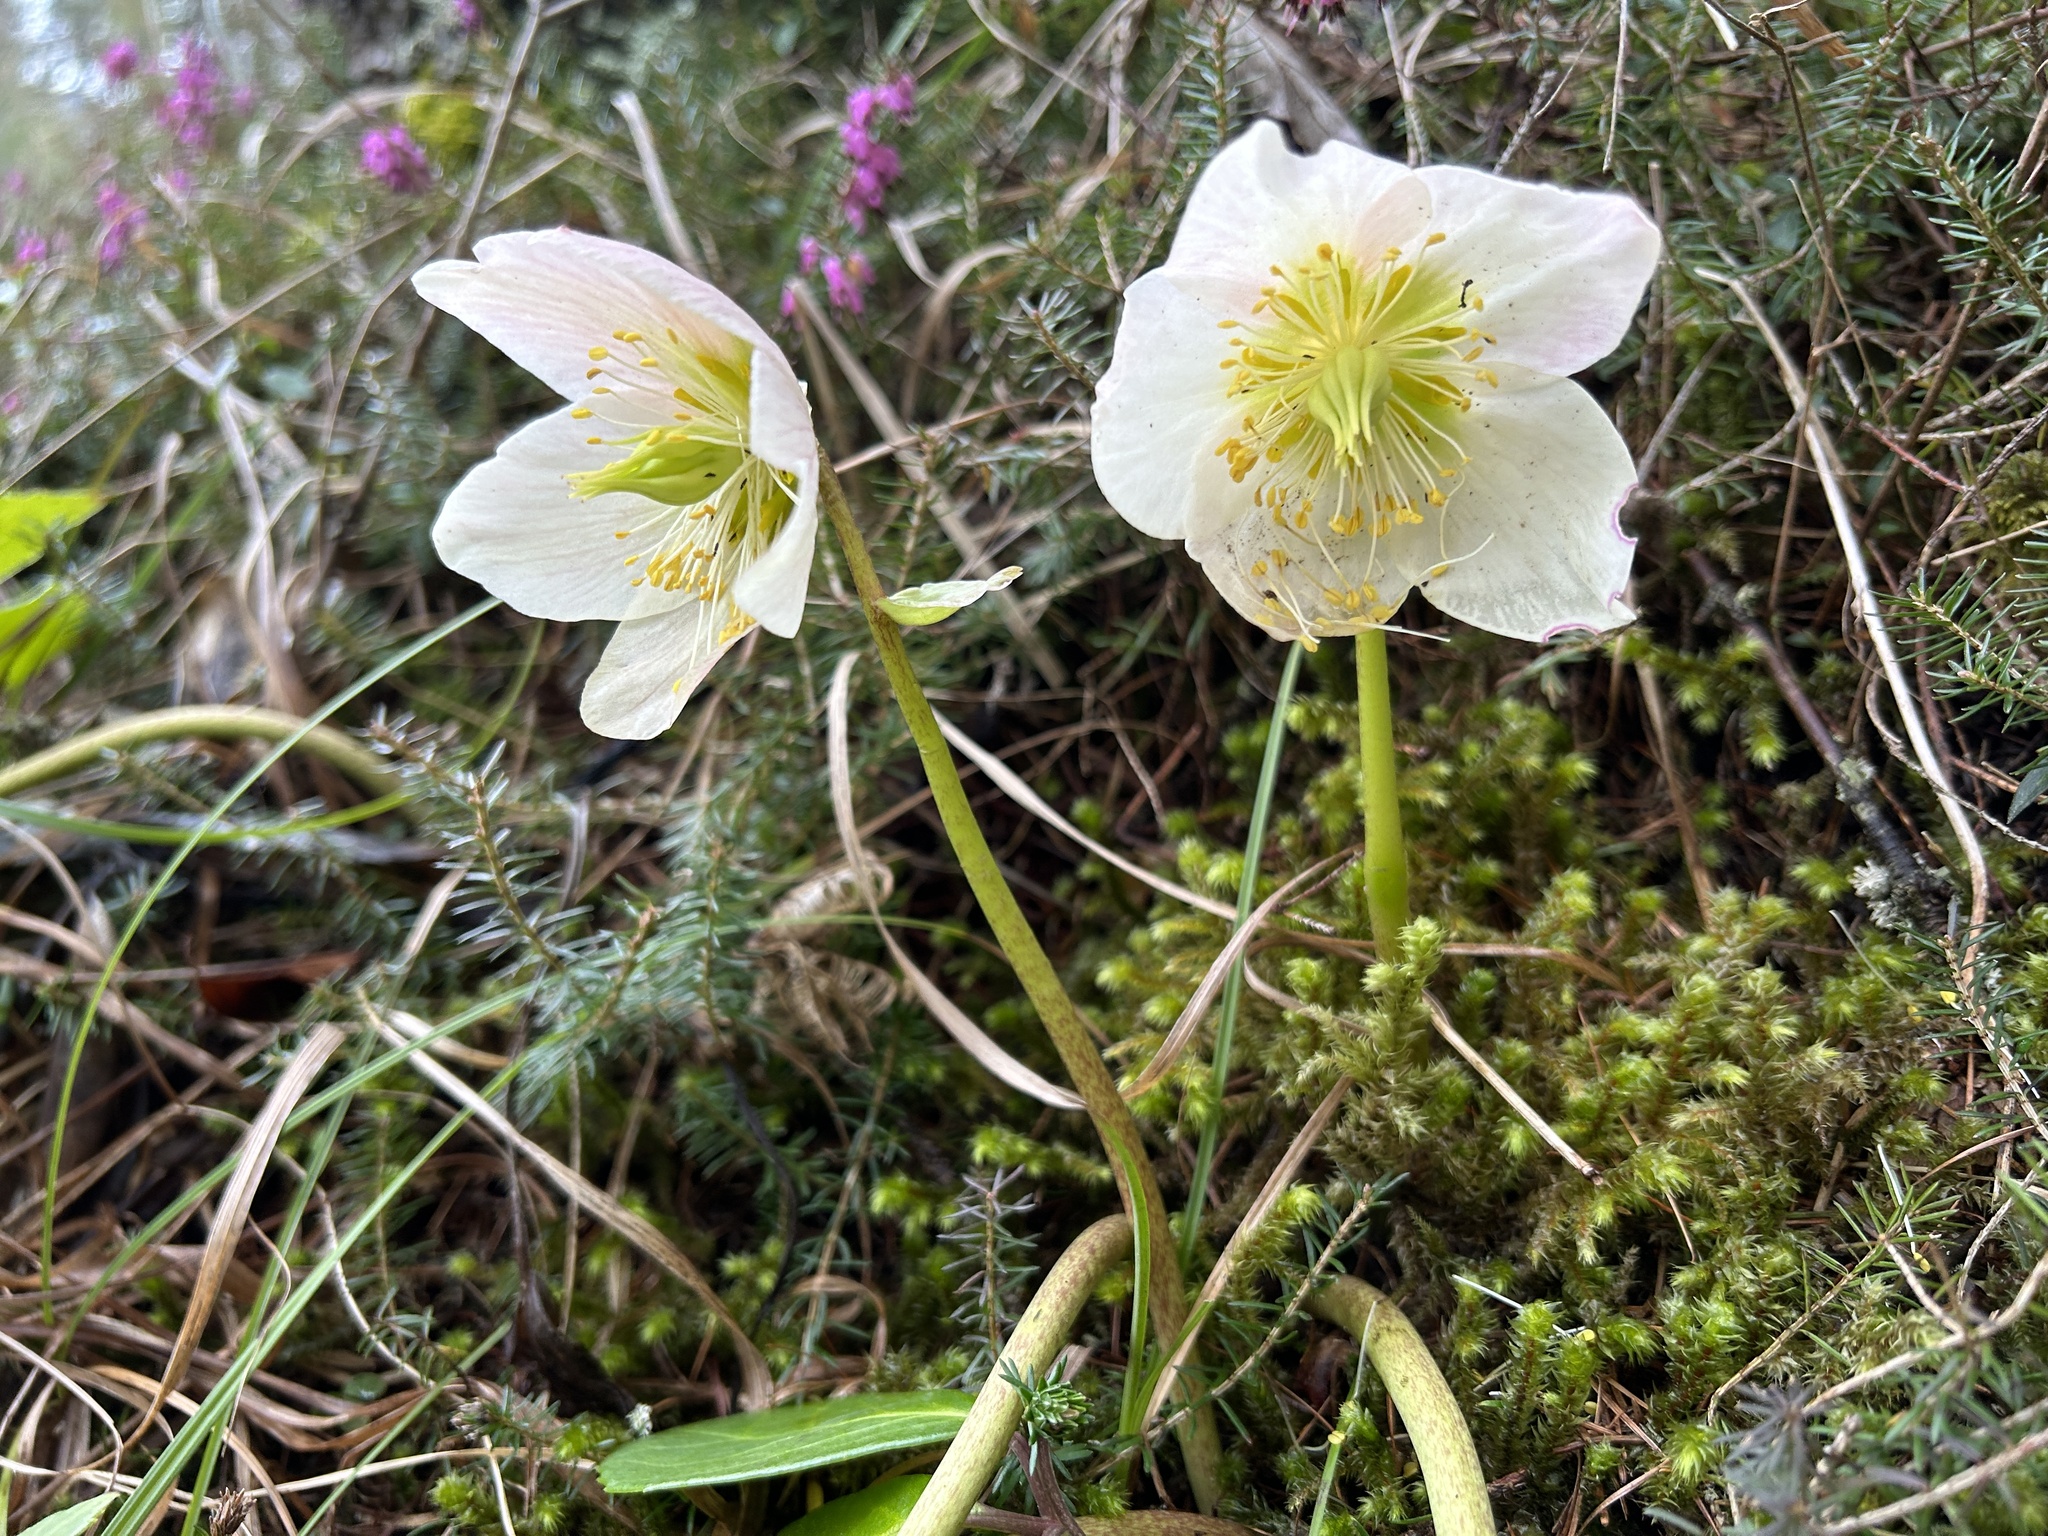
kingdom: Plantae
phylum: Tracheophyta
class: Magnoliopsida
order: Ranunculales
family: Ranunculaceae
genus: Helleborus
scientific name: Helleborus niger
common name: Black hellebore
